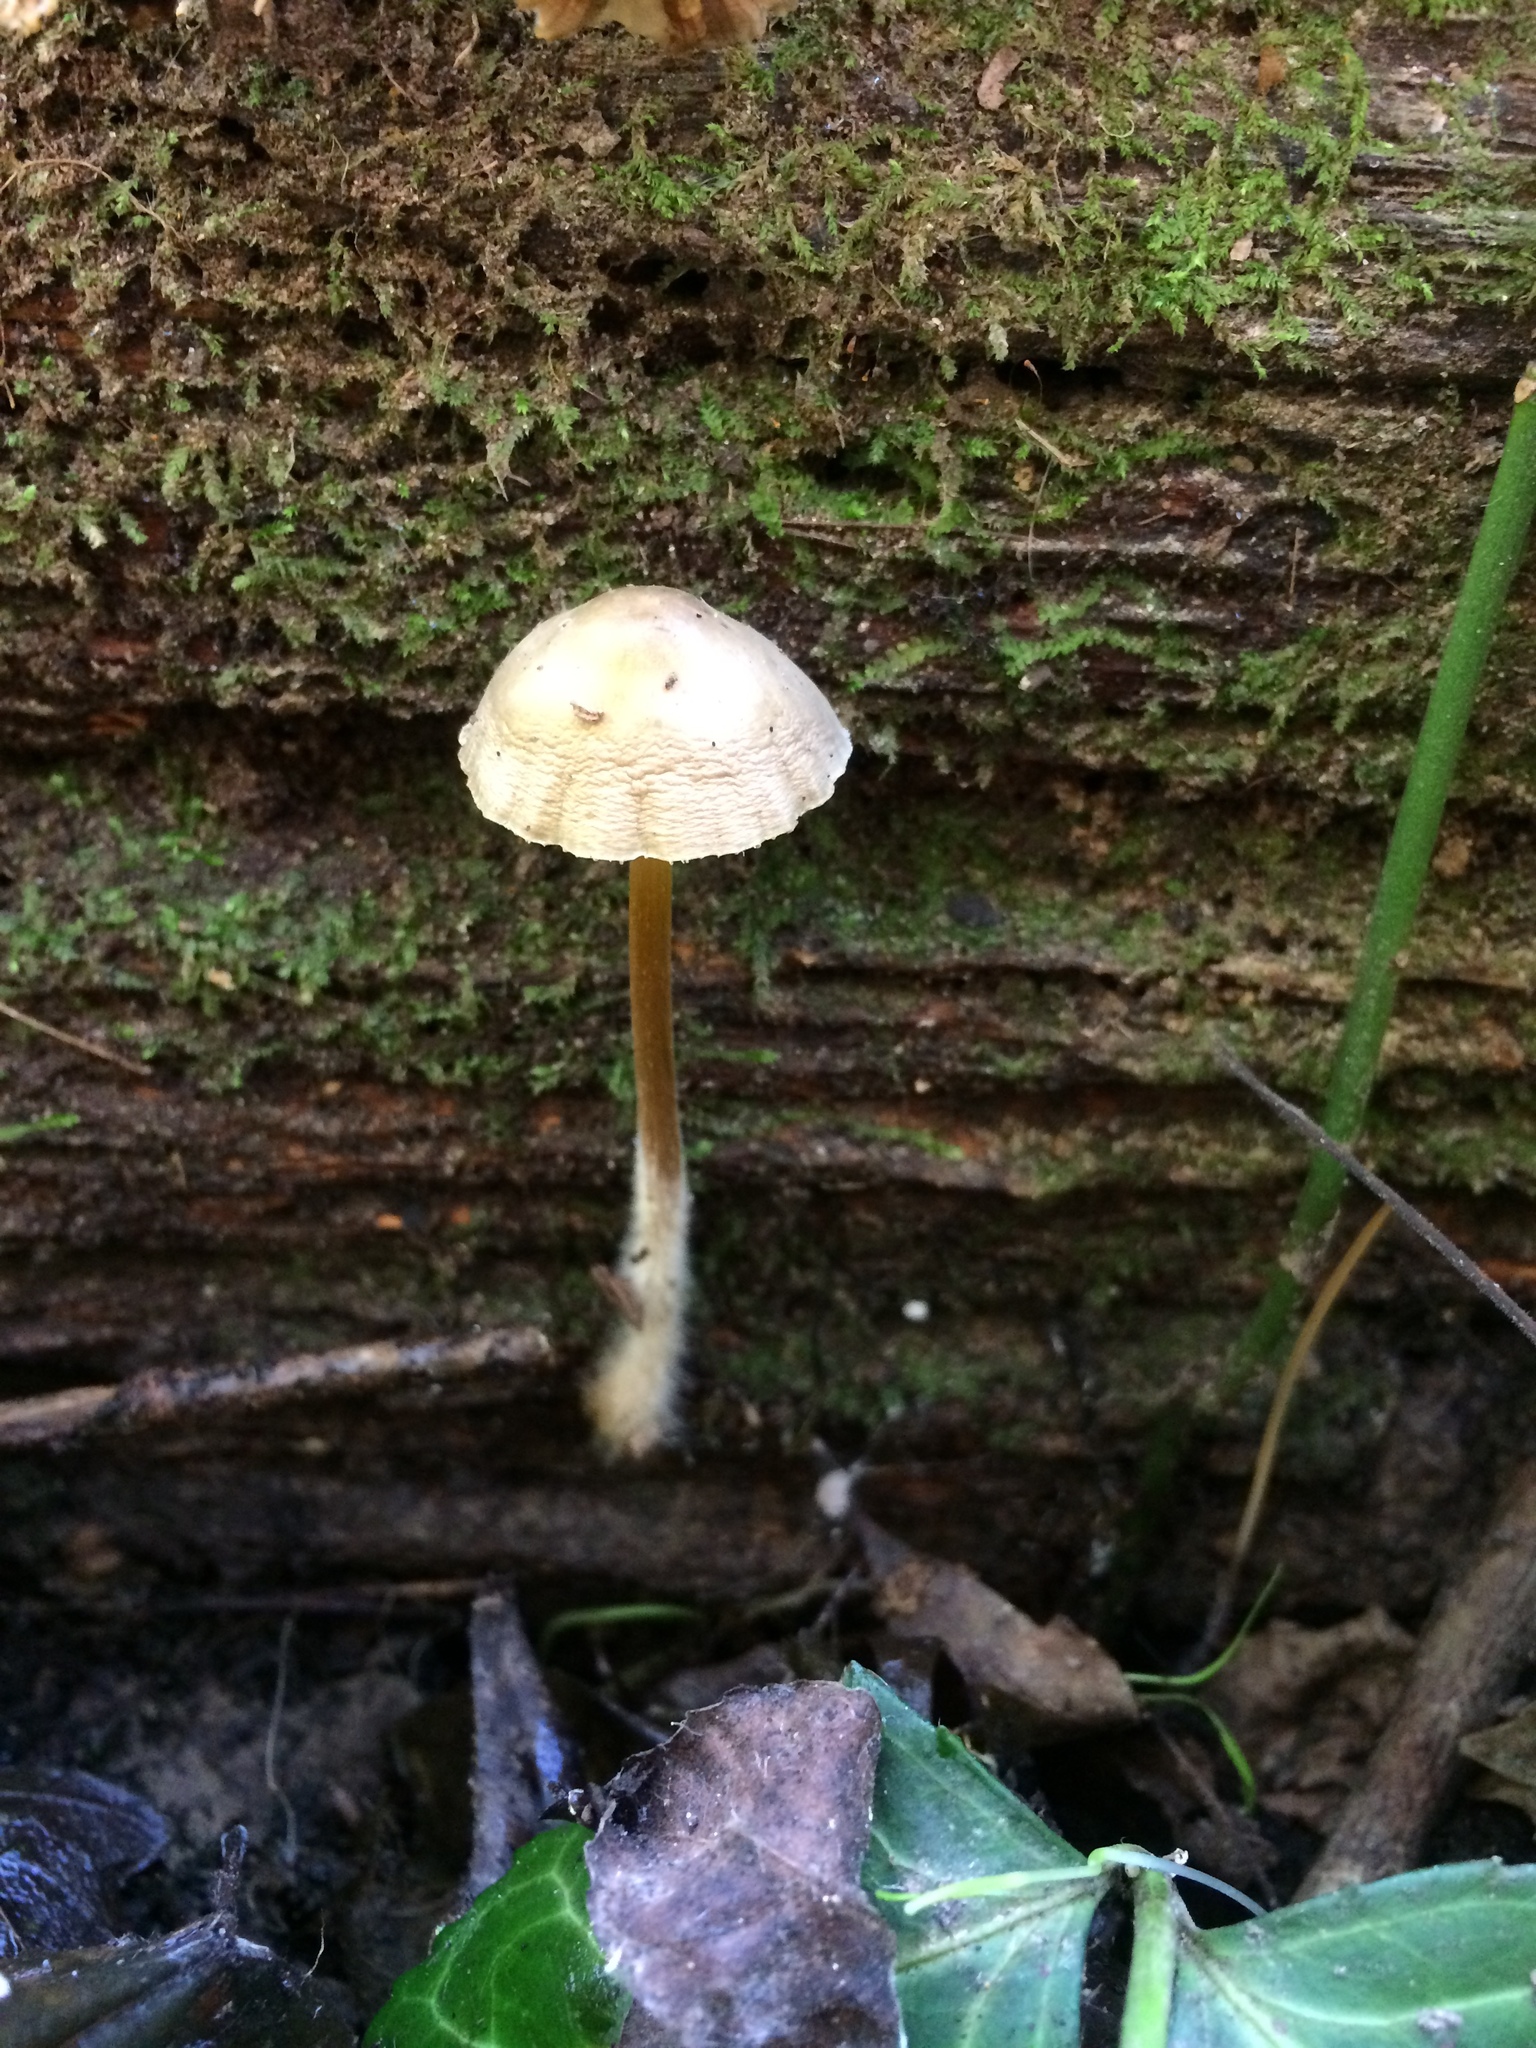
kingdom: Fungi
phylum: Basidiomycota
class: Agaricomycetes
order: Agaricales
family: Mycenaceae
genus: Mycena
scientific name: Mycena inclinata
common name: Clustered bonnet
